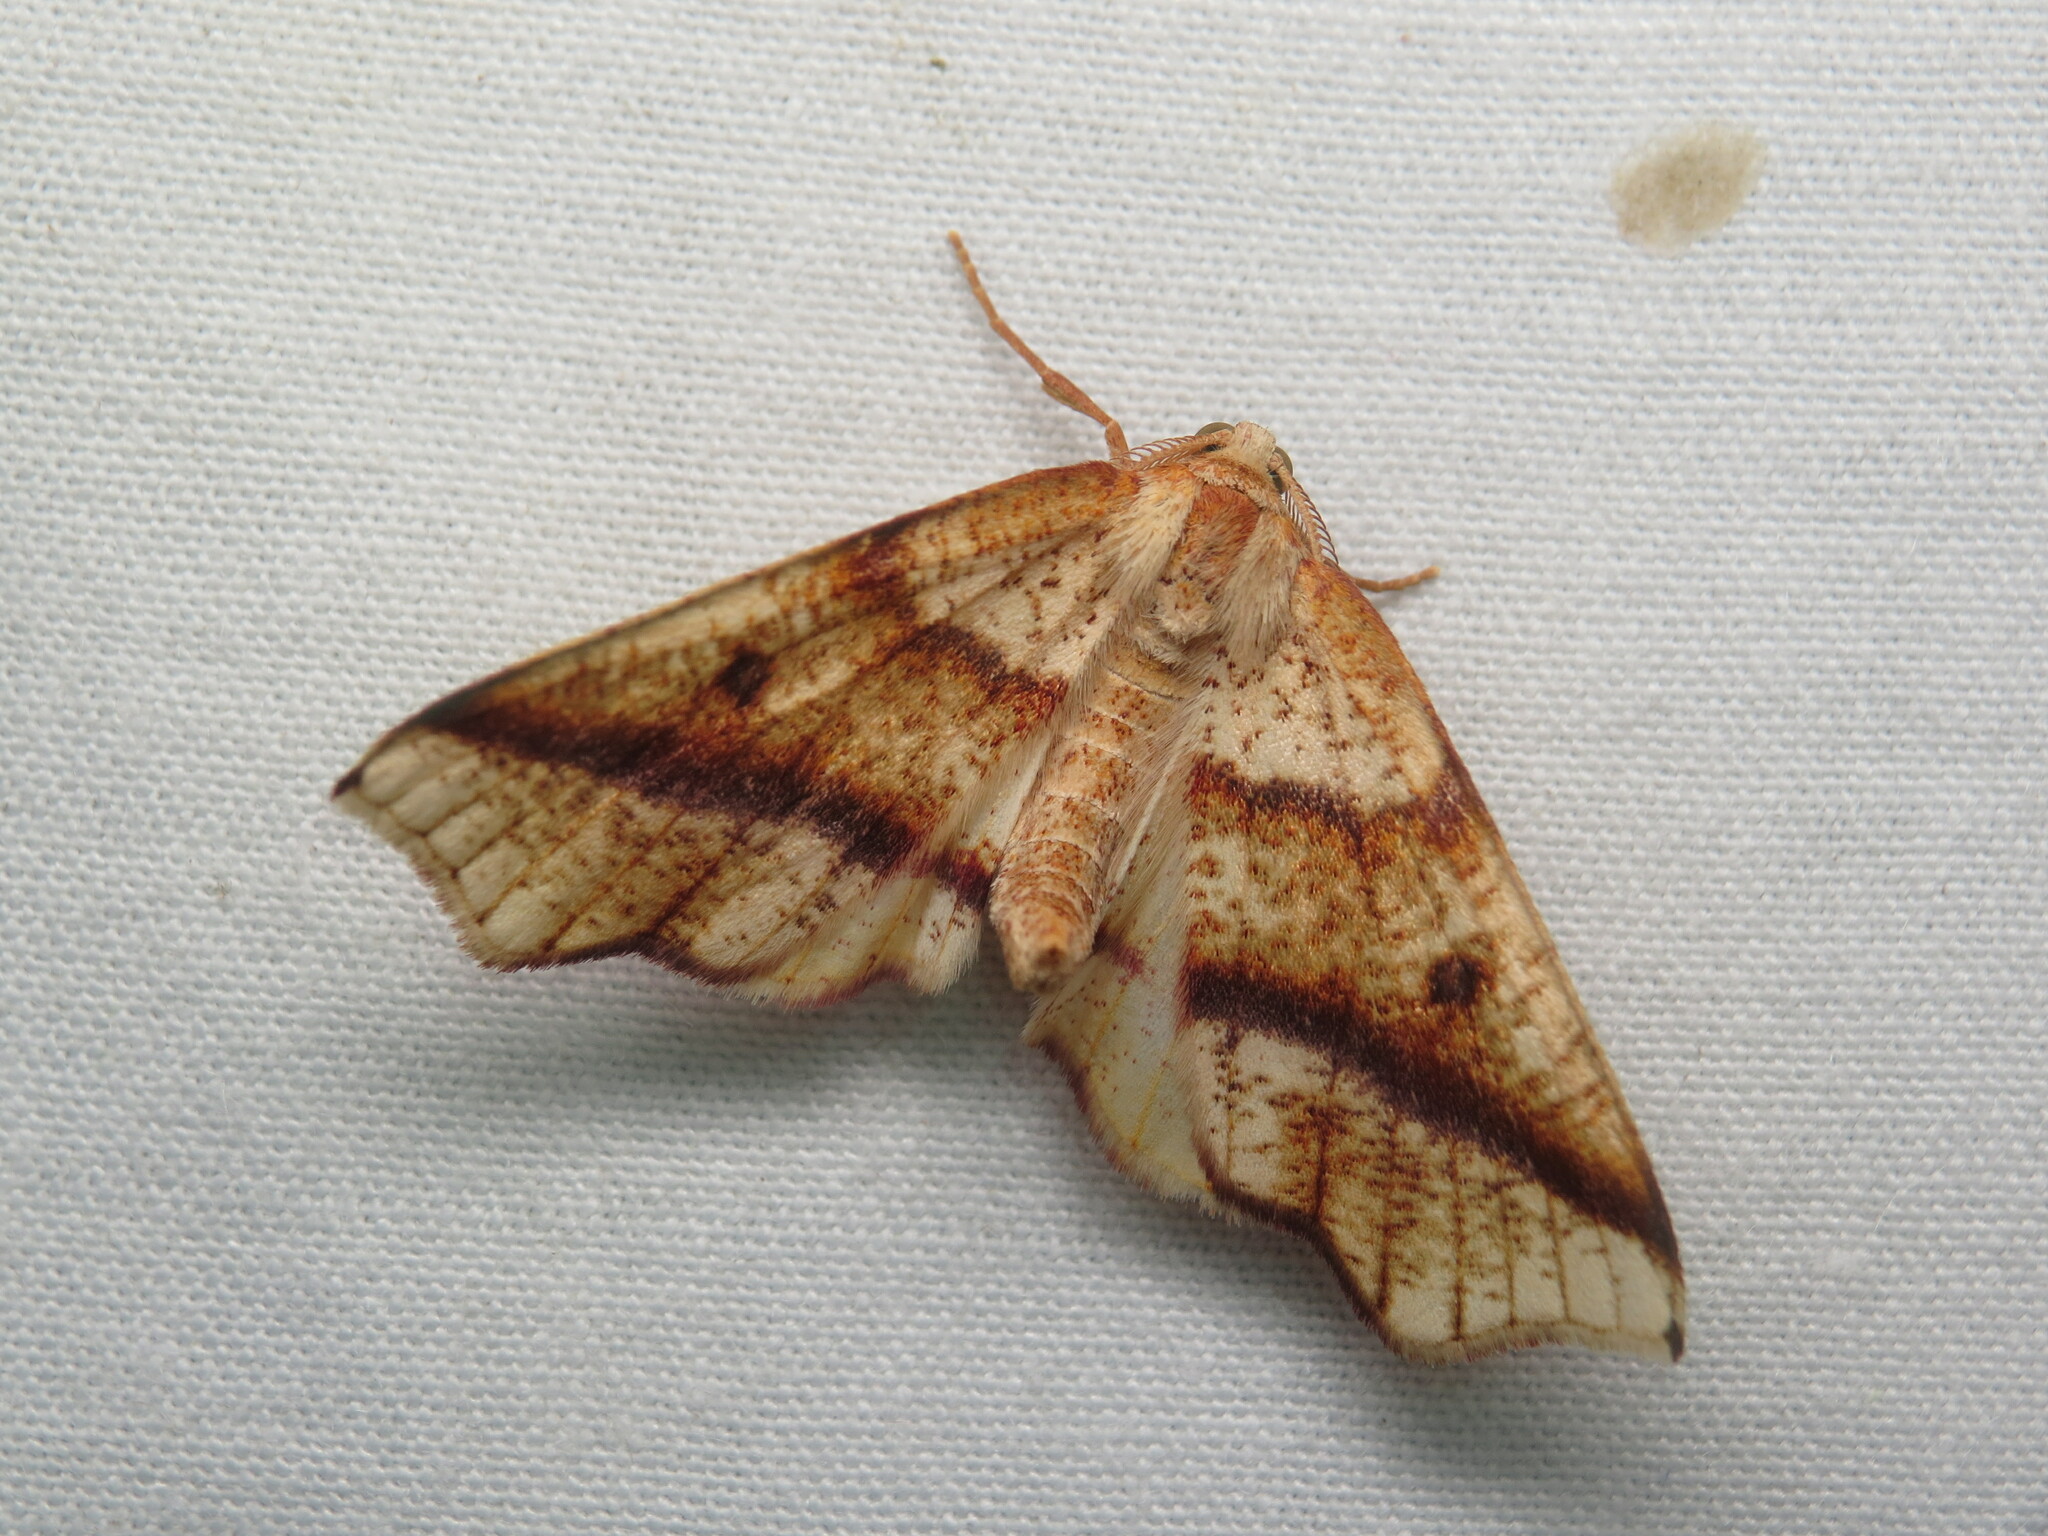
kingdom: Animalia
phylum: Arthropoda
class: Insecta
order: Lepidoptera
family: Geometridae
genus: Plagodis
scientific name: Plagodis alcoolaria
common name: Hollow-spotted plagodis
